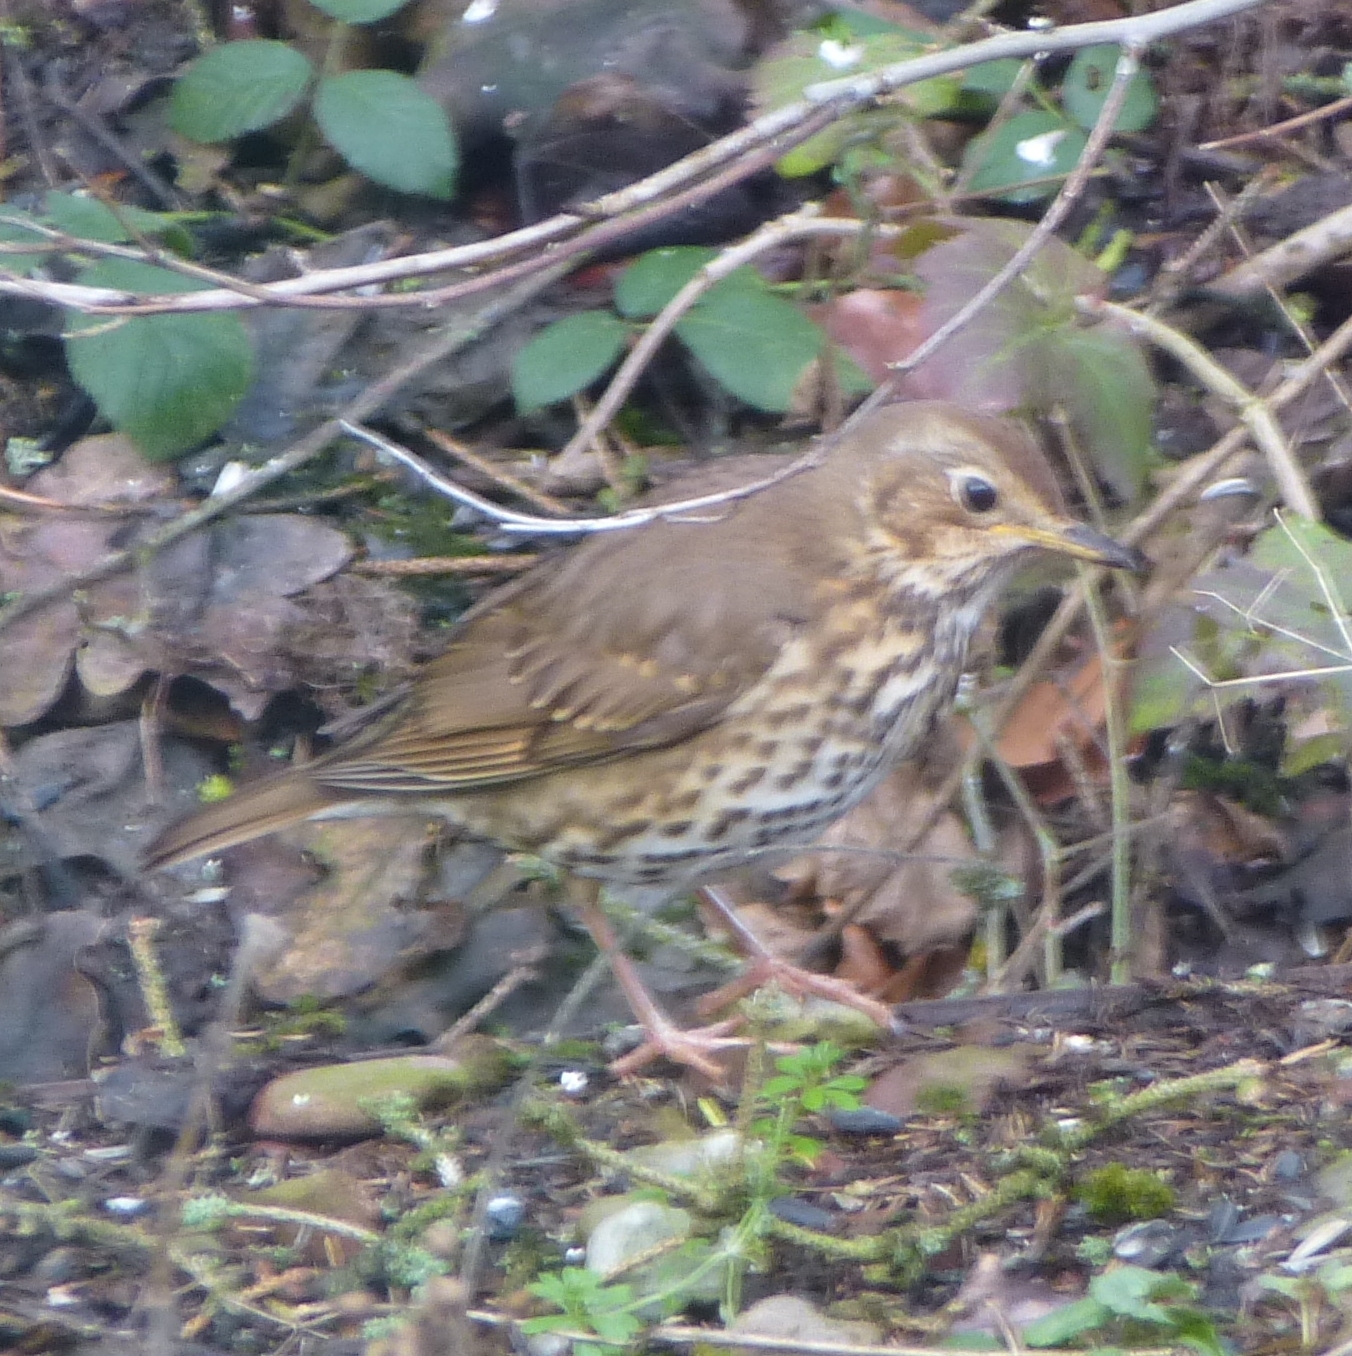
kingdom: Animalia
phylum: Chordata
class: Aves
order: Passeriformes
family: Turdidae
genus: Turdus
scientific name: Turdus philomelos
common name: Song thrush
